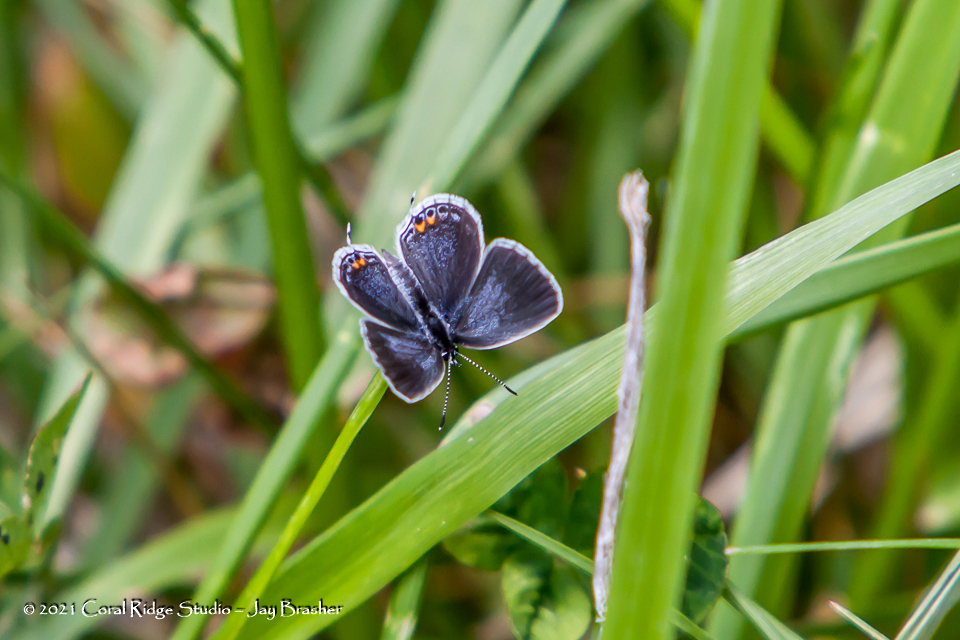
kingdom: Animalia
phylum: Arthropoda
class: Insecta
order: Lepidoptera
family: Lycaenidae
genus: Elkalyce
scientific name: Elkalyce comyntas
